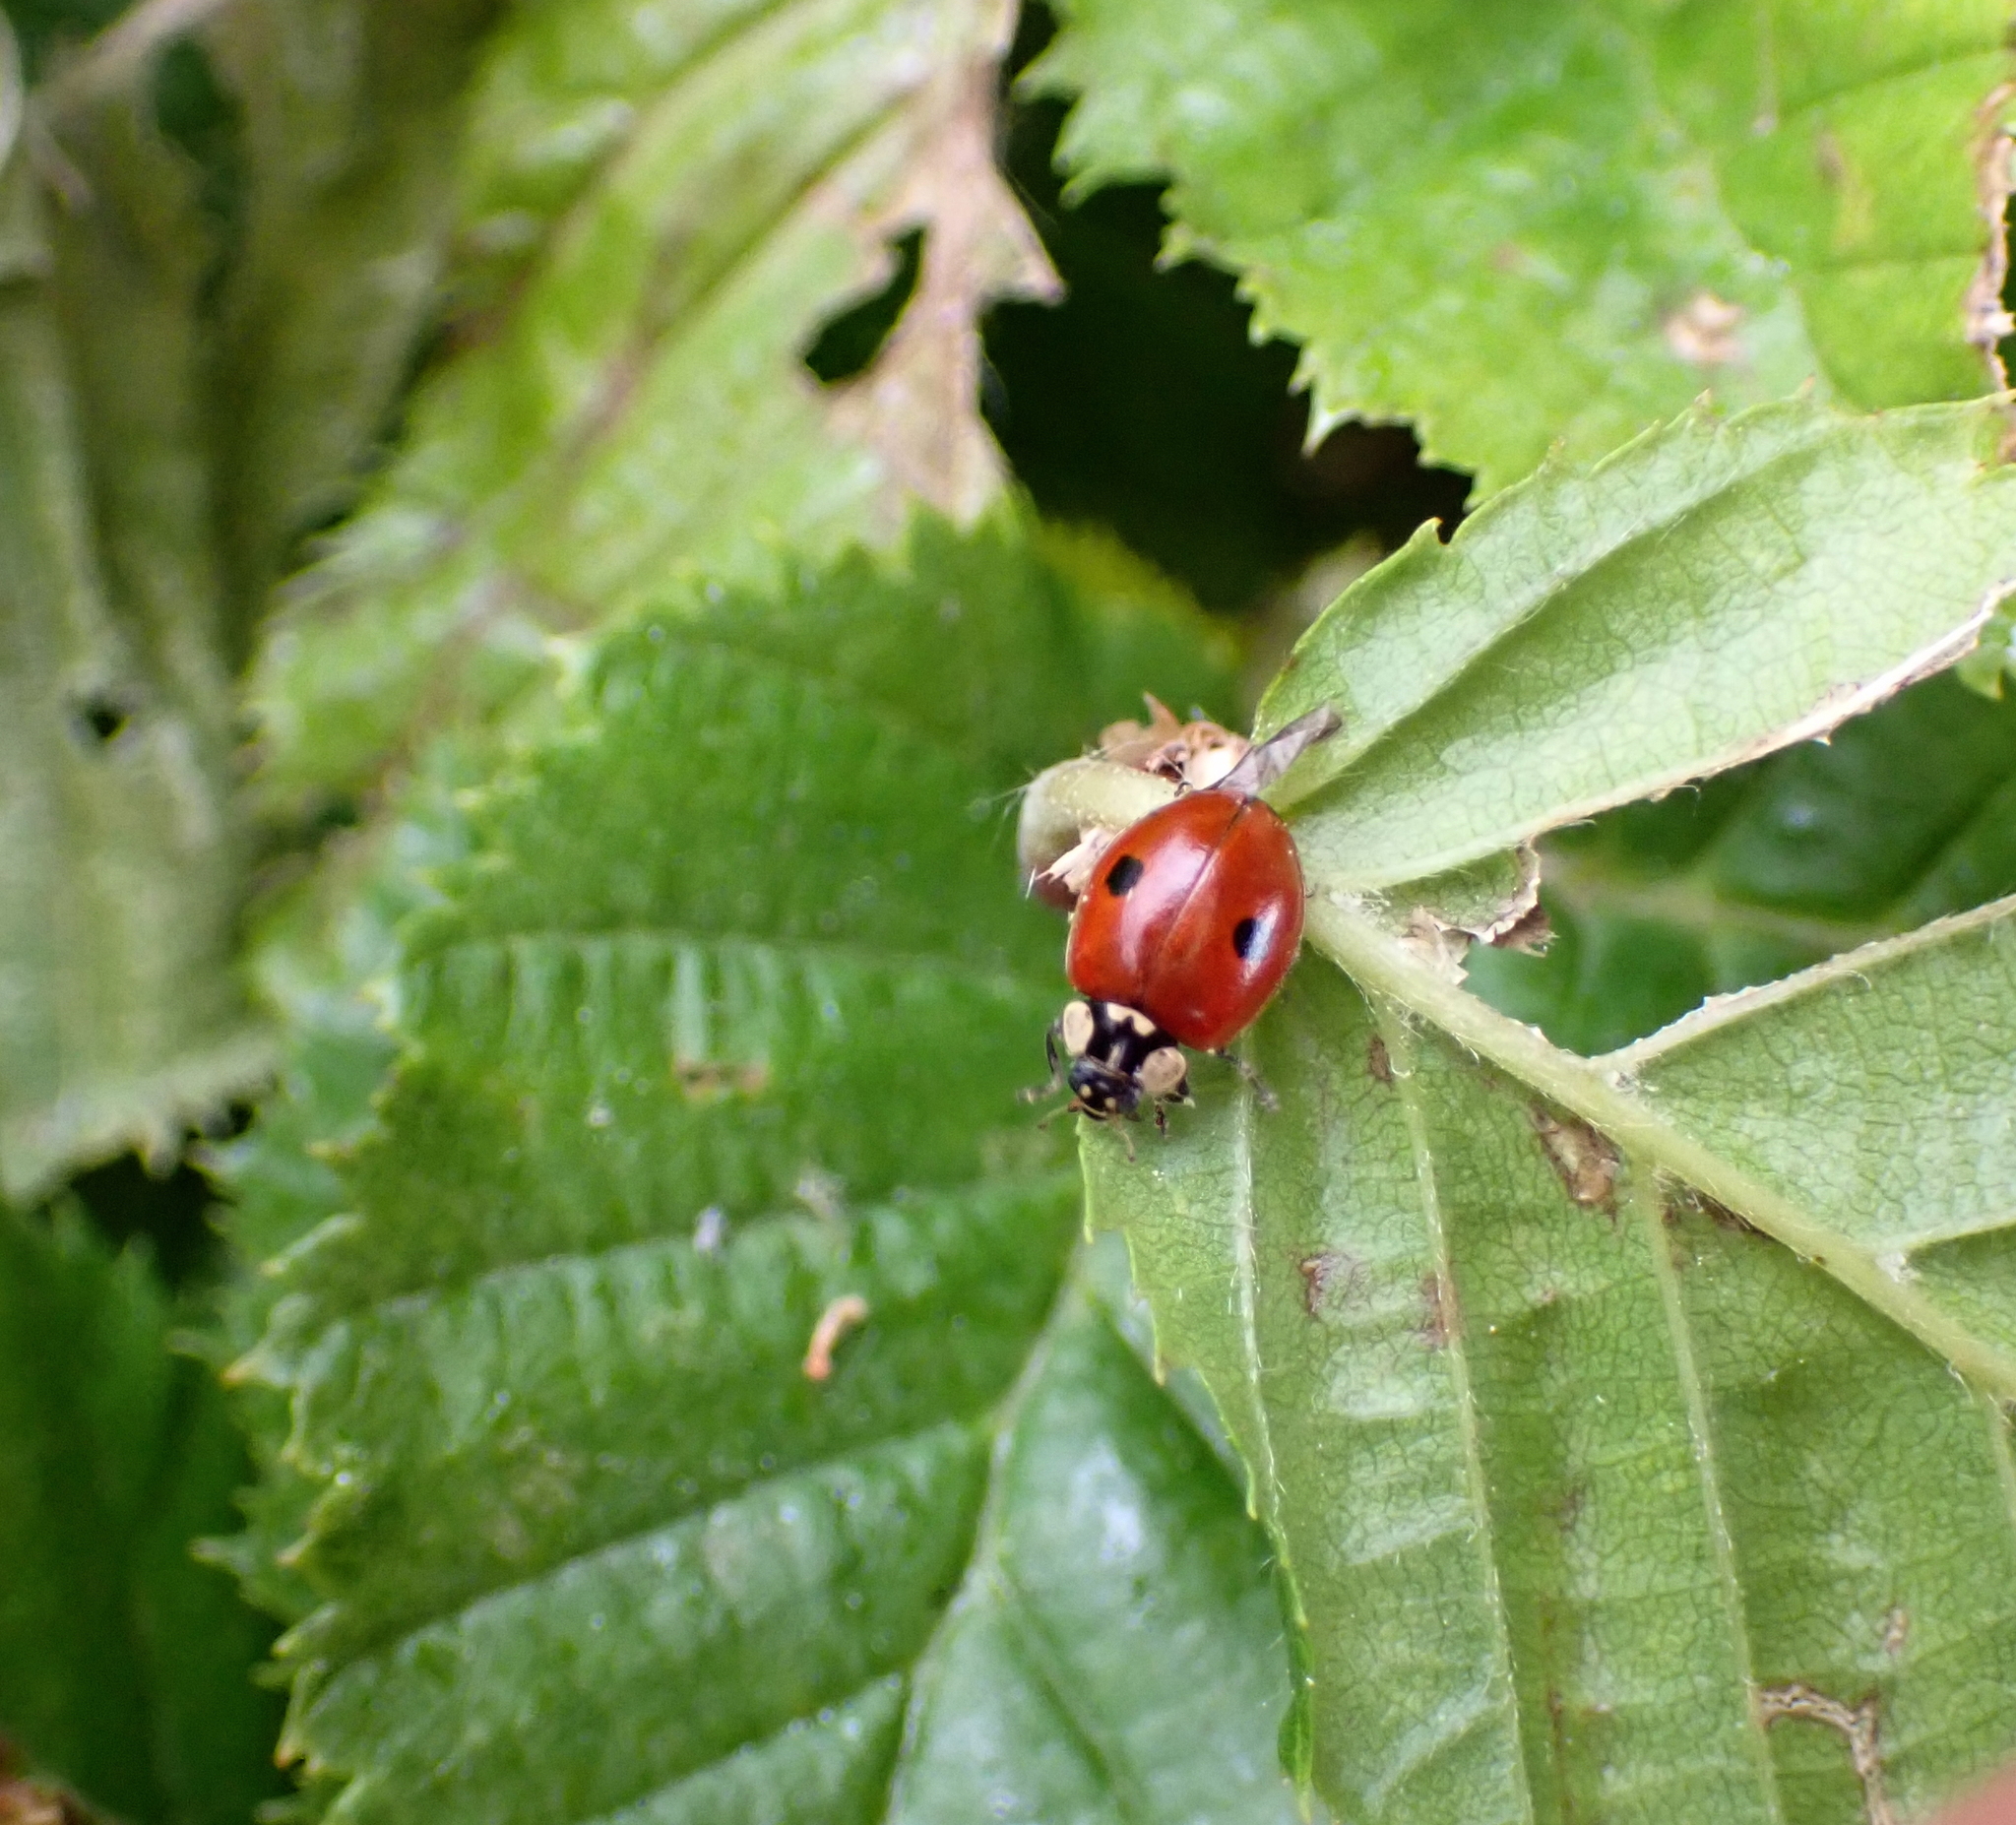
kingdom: Animalia
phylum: Arthropoda
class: Insecta
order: Coleoptera
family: Coccinellidae
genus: Adalia
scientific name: Adalia bipunctata
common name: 2-spot ladybird
